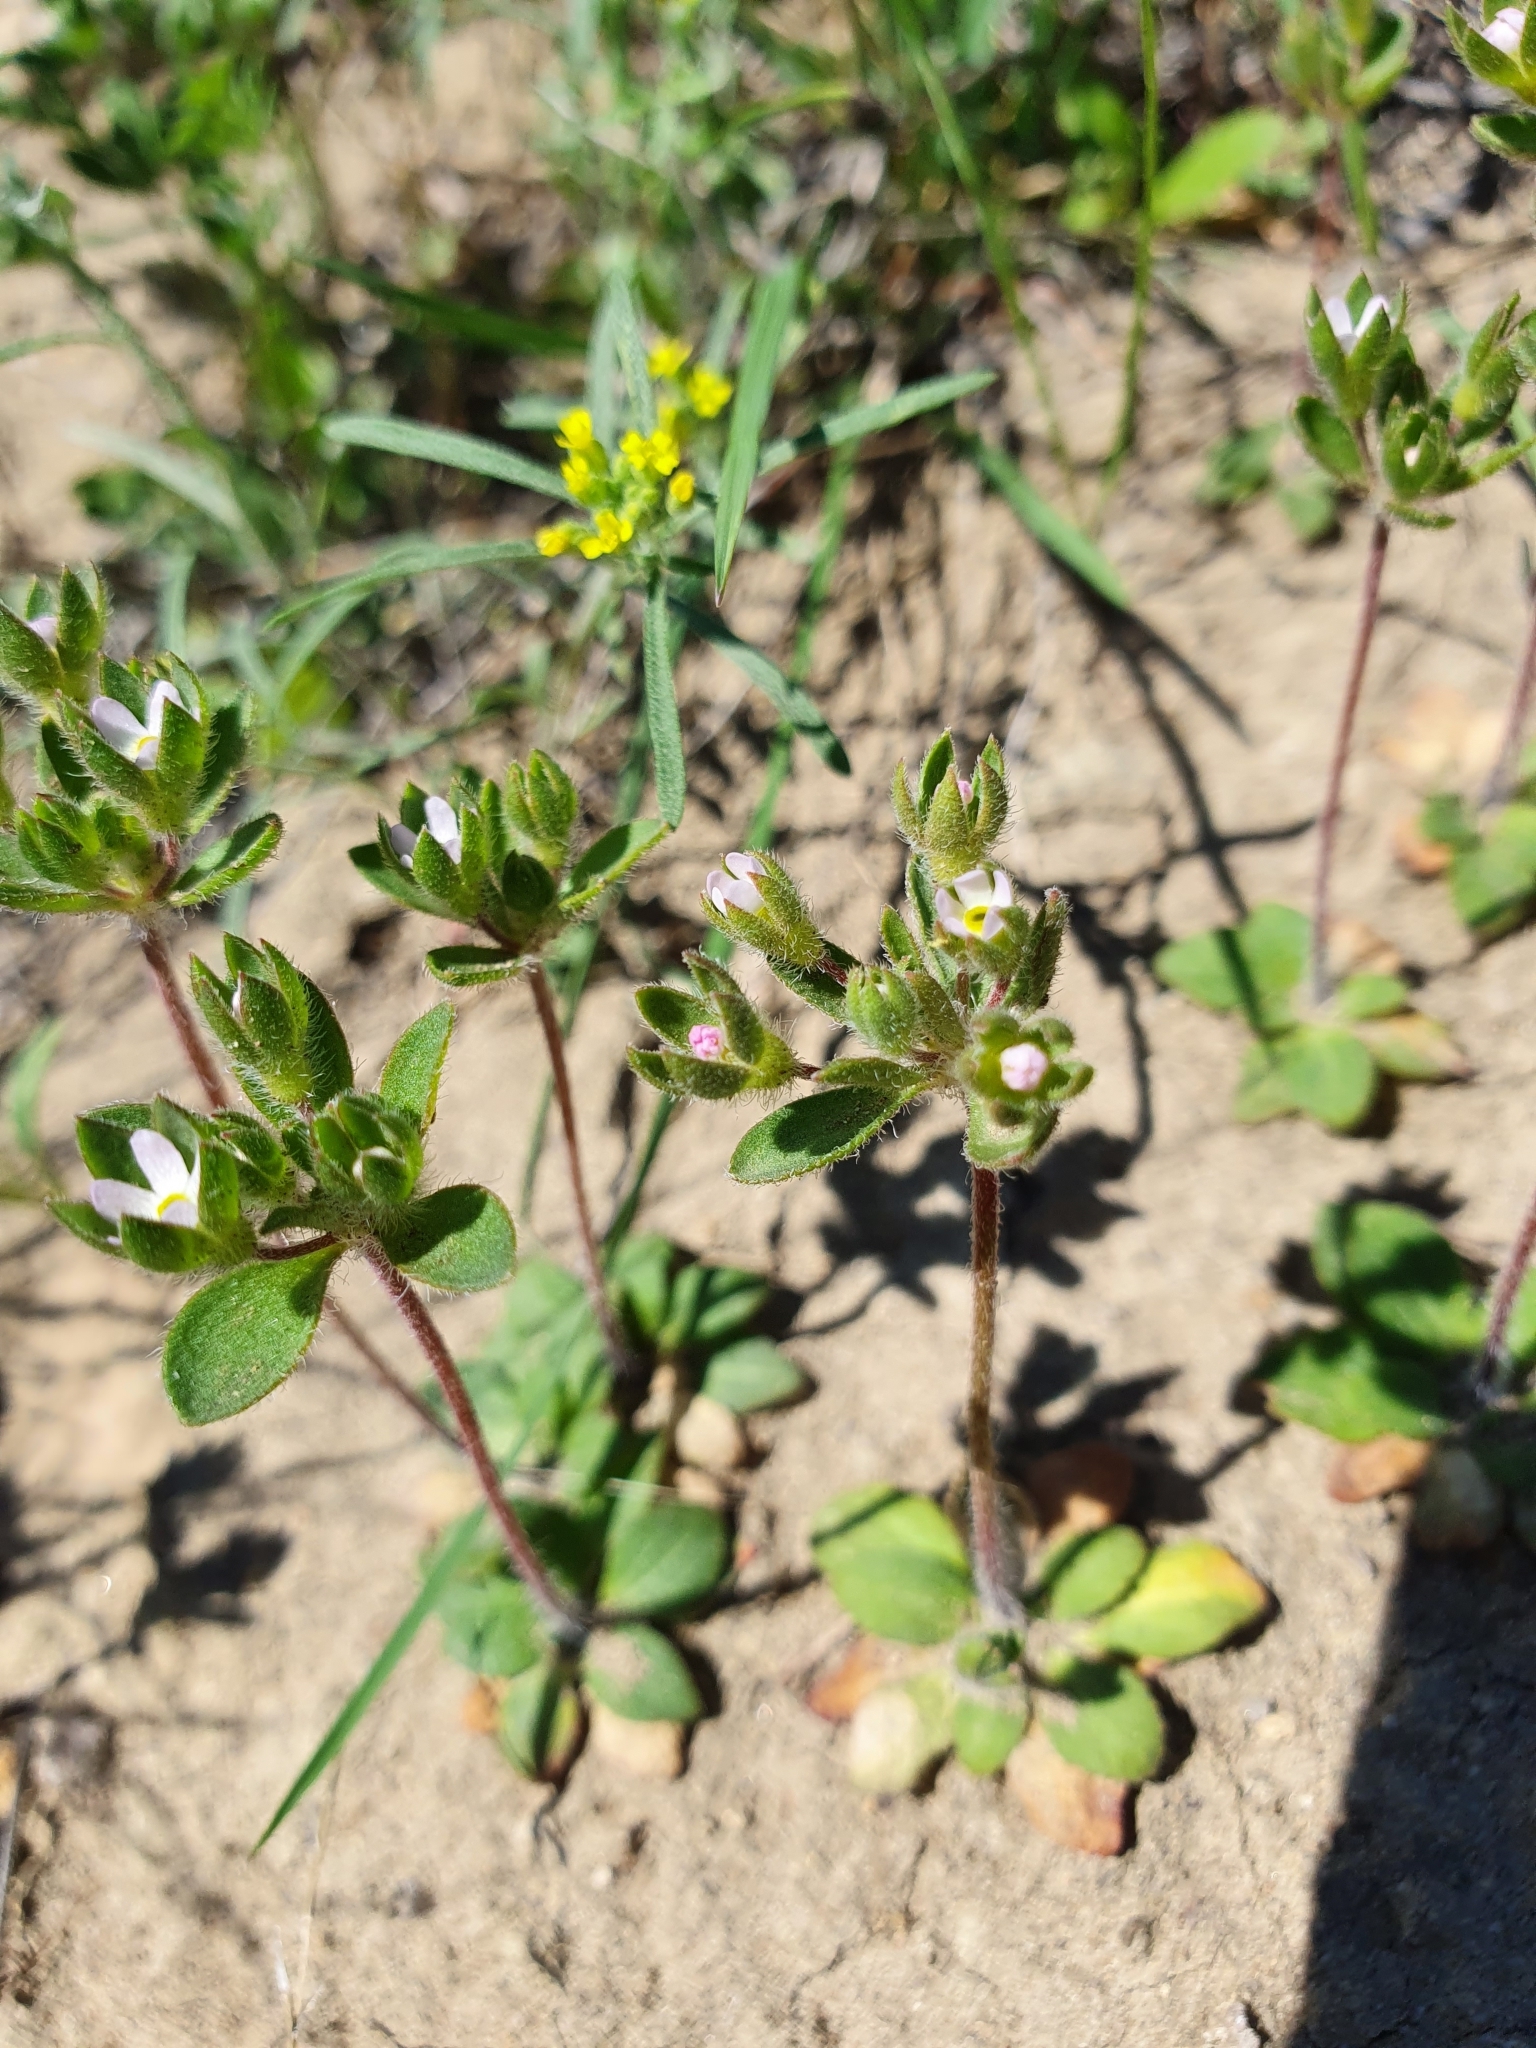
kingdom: Plantae
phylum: Tracheophyta
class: Magnoliopsida
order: Ericales
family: Primulaceae
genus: Androsace
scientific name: Androsace maxima
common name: Annual androsace
